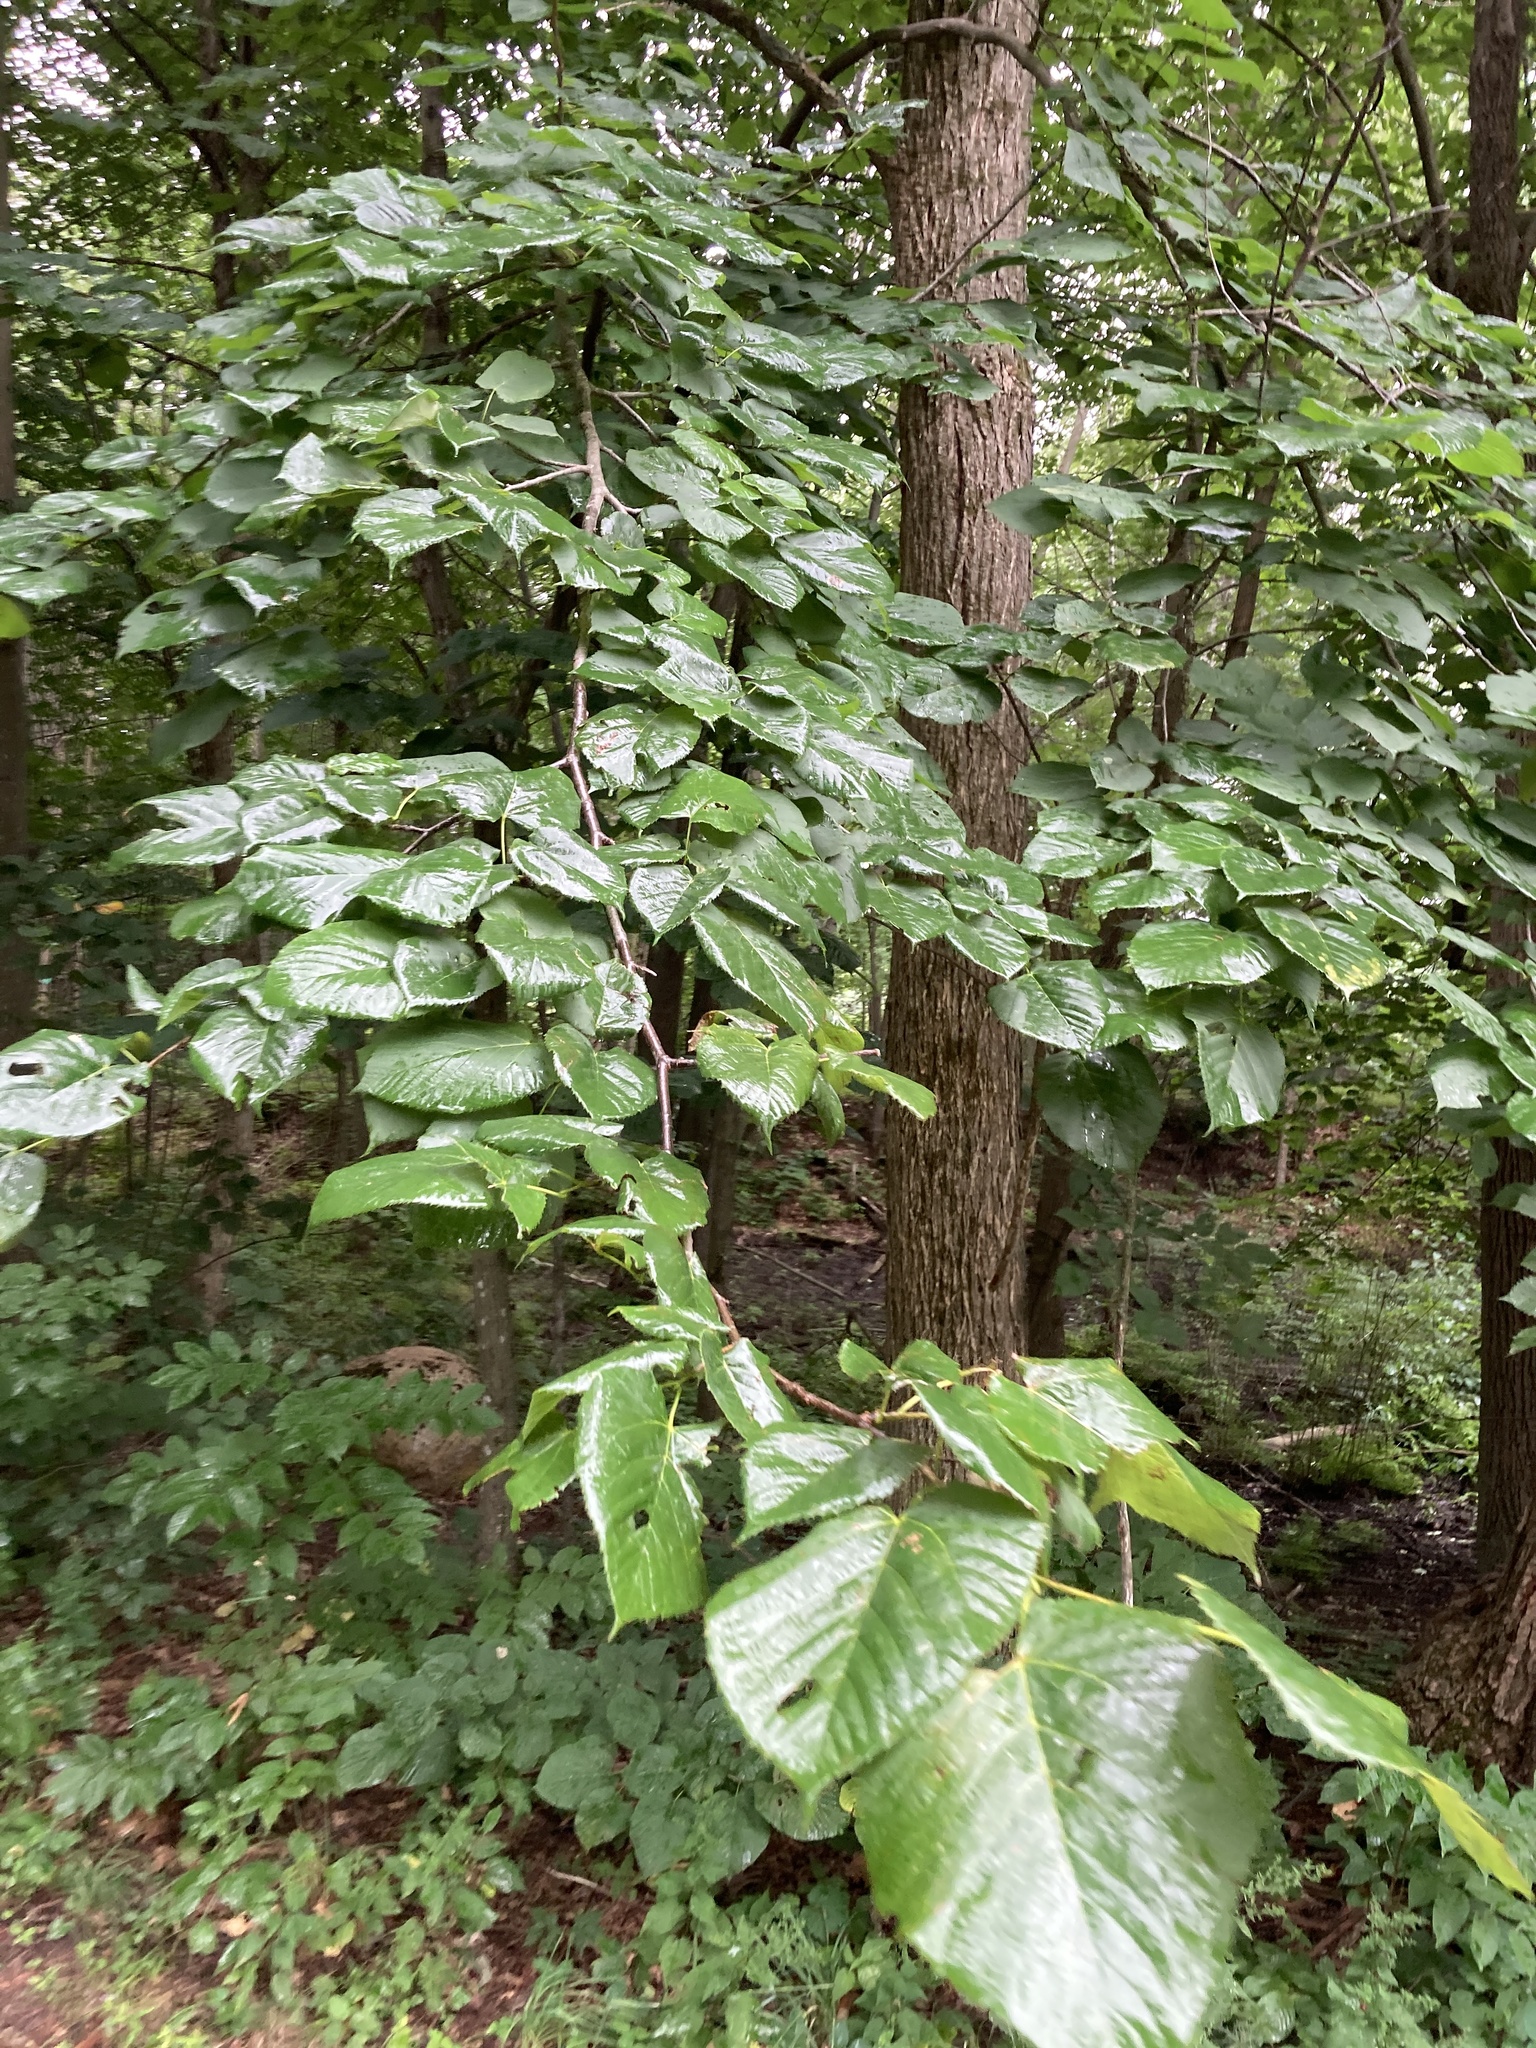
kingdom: Plantae
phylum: Tracheophyta
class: Magnoliopsida
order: Malvales
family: Malvaceae
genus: Tilia
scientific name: Tilia americana
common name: Basswood
